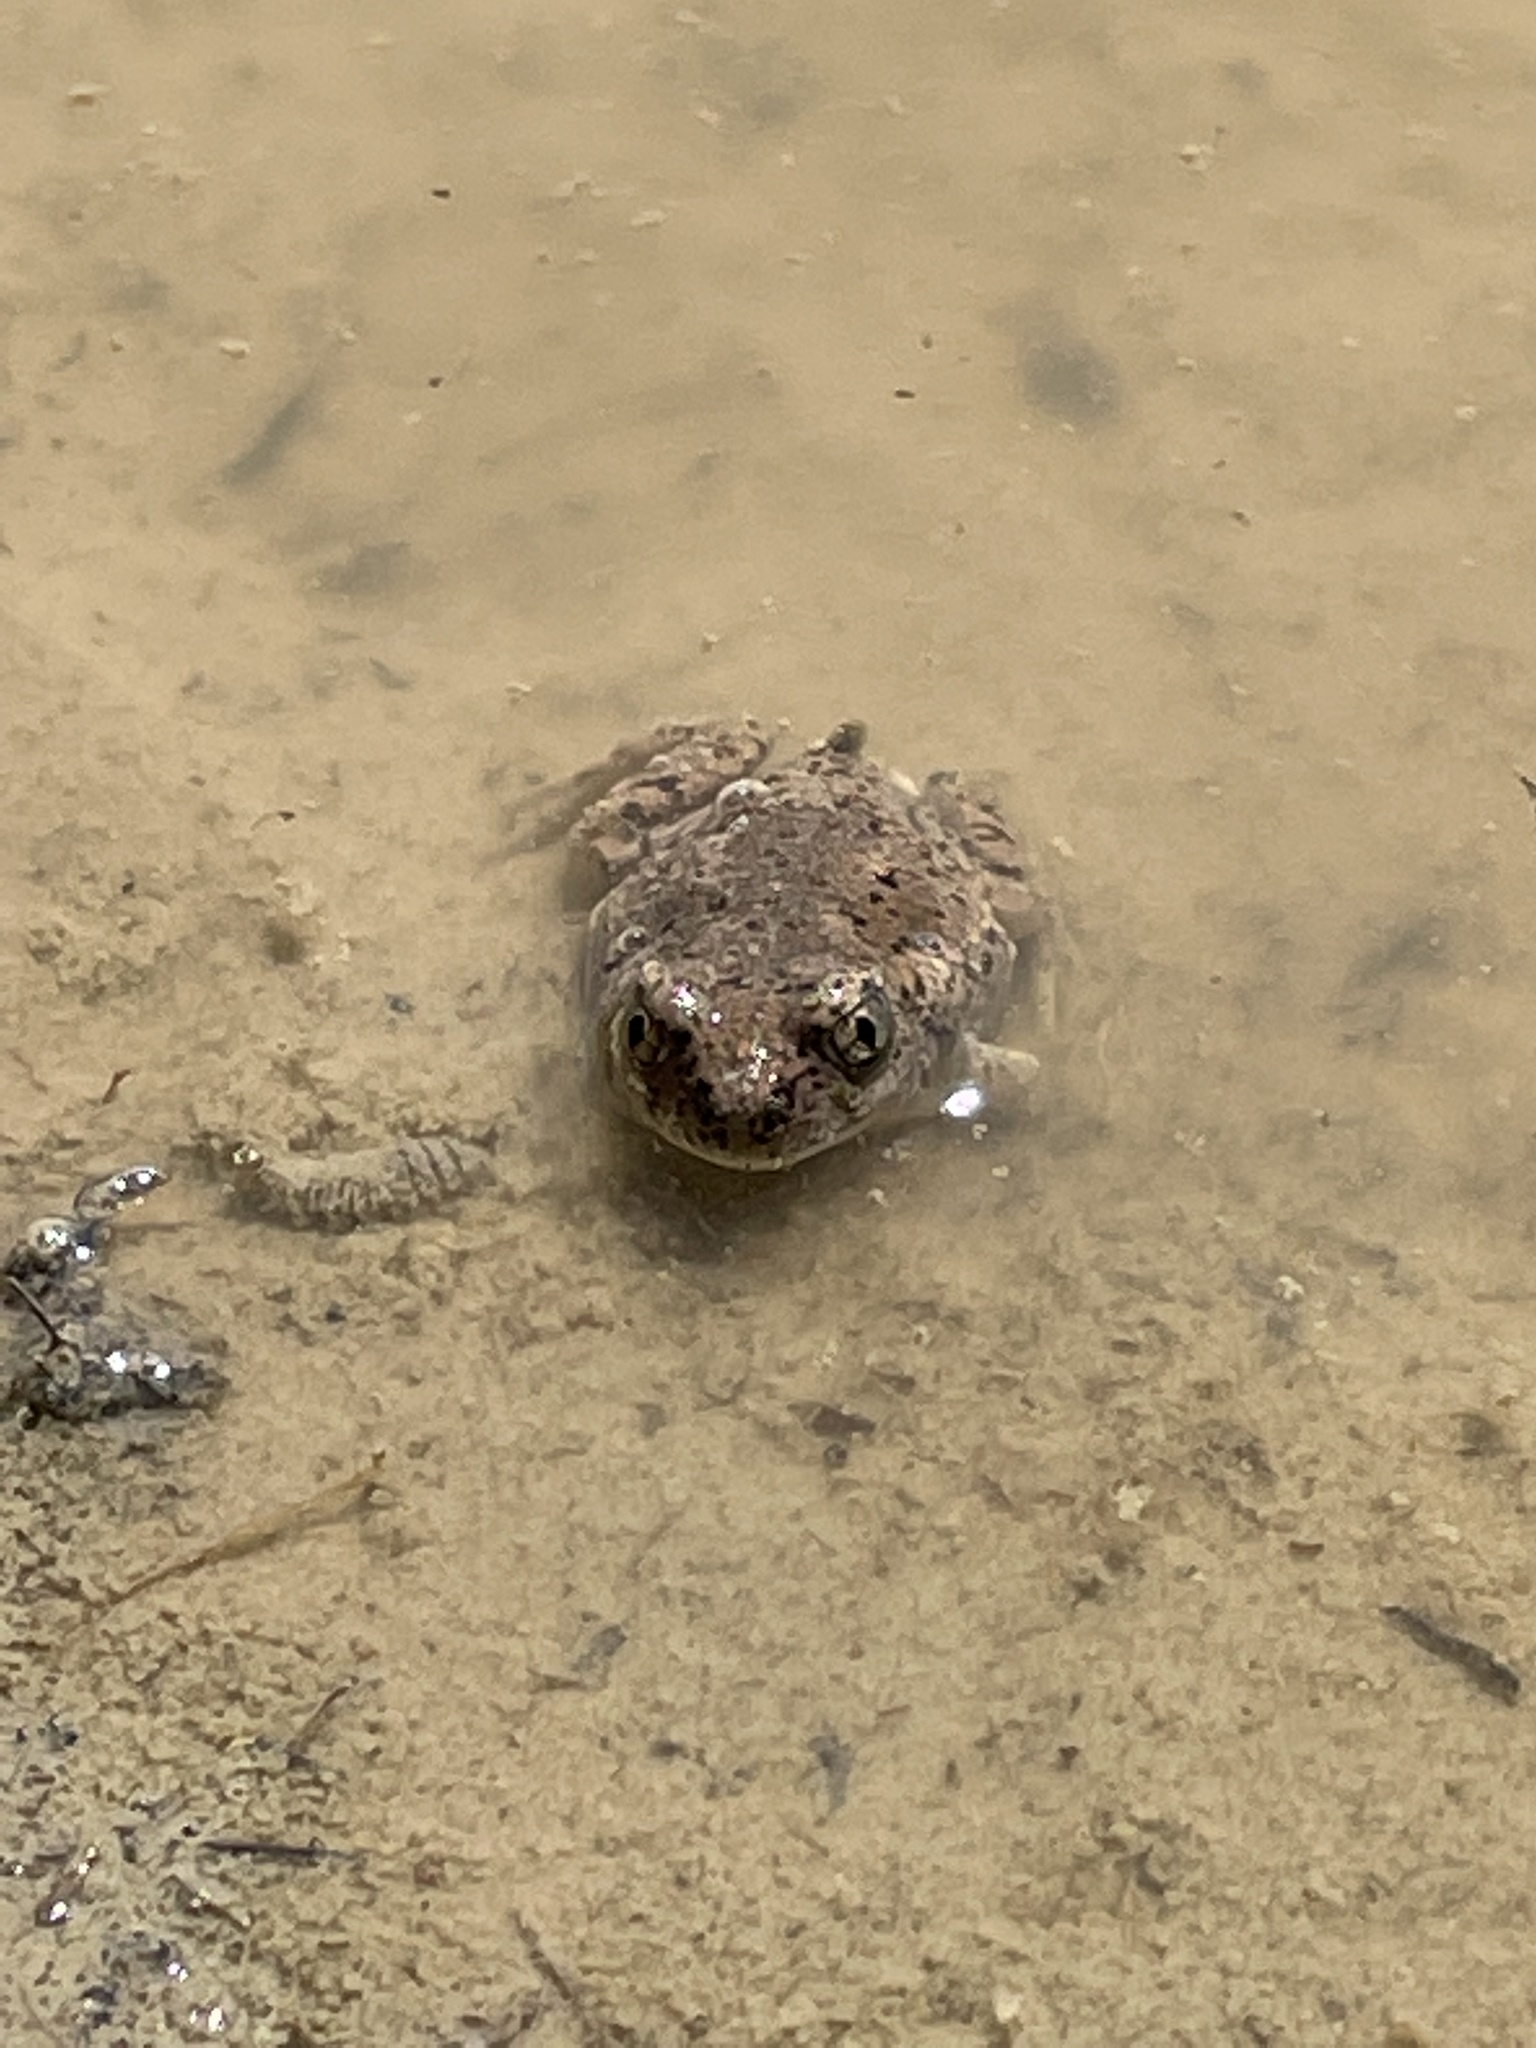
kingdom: Animalia
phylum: Chordata
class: Amphibia
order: Anura
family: Scaphiopodidae
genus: Spea
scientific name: Spea multiplicata
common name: Mexican spadefoot
